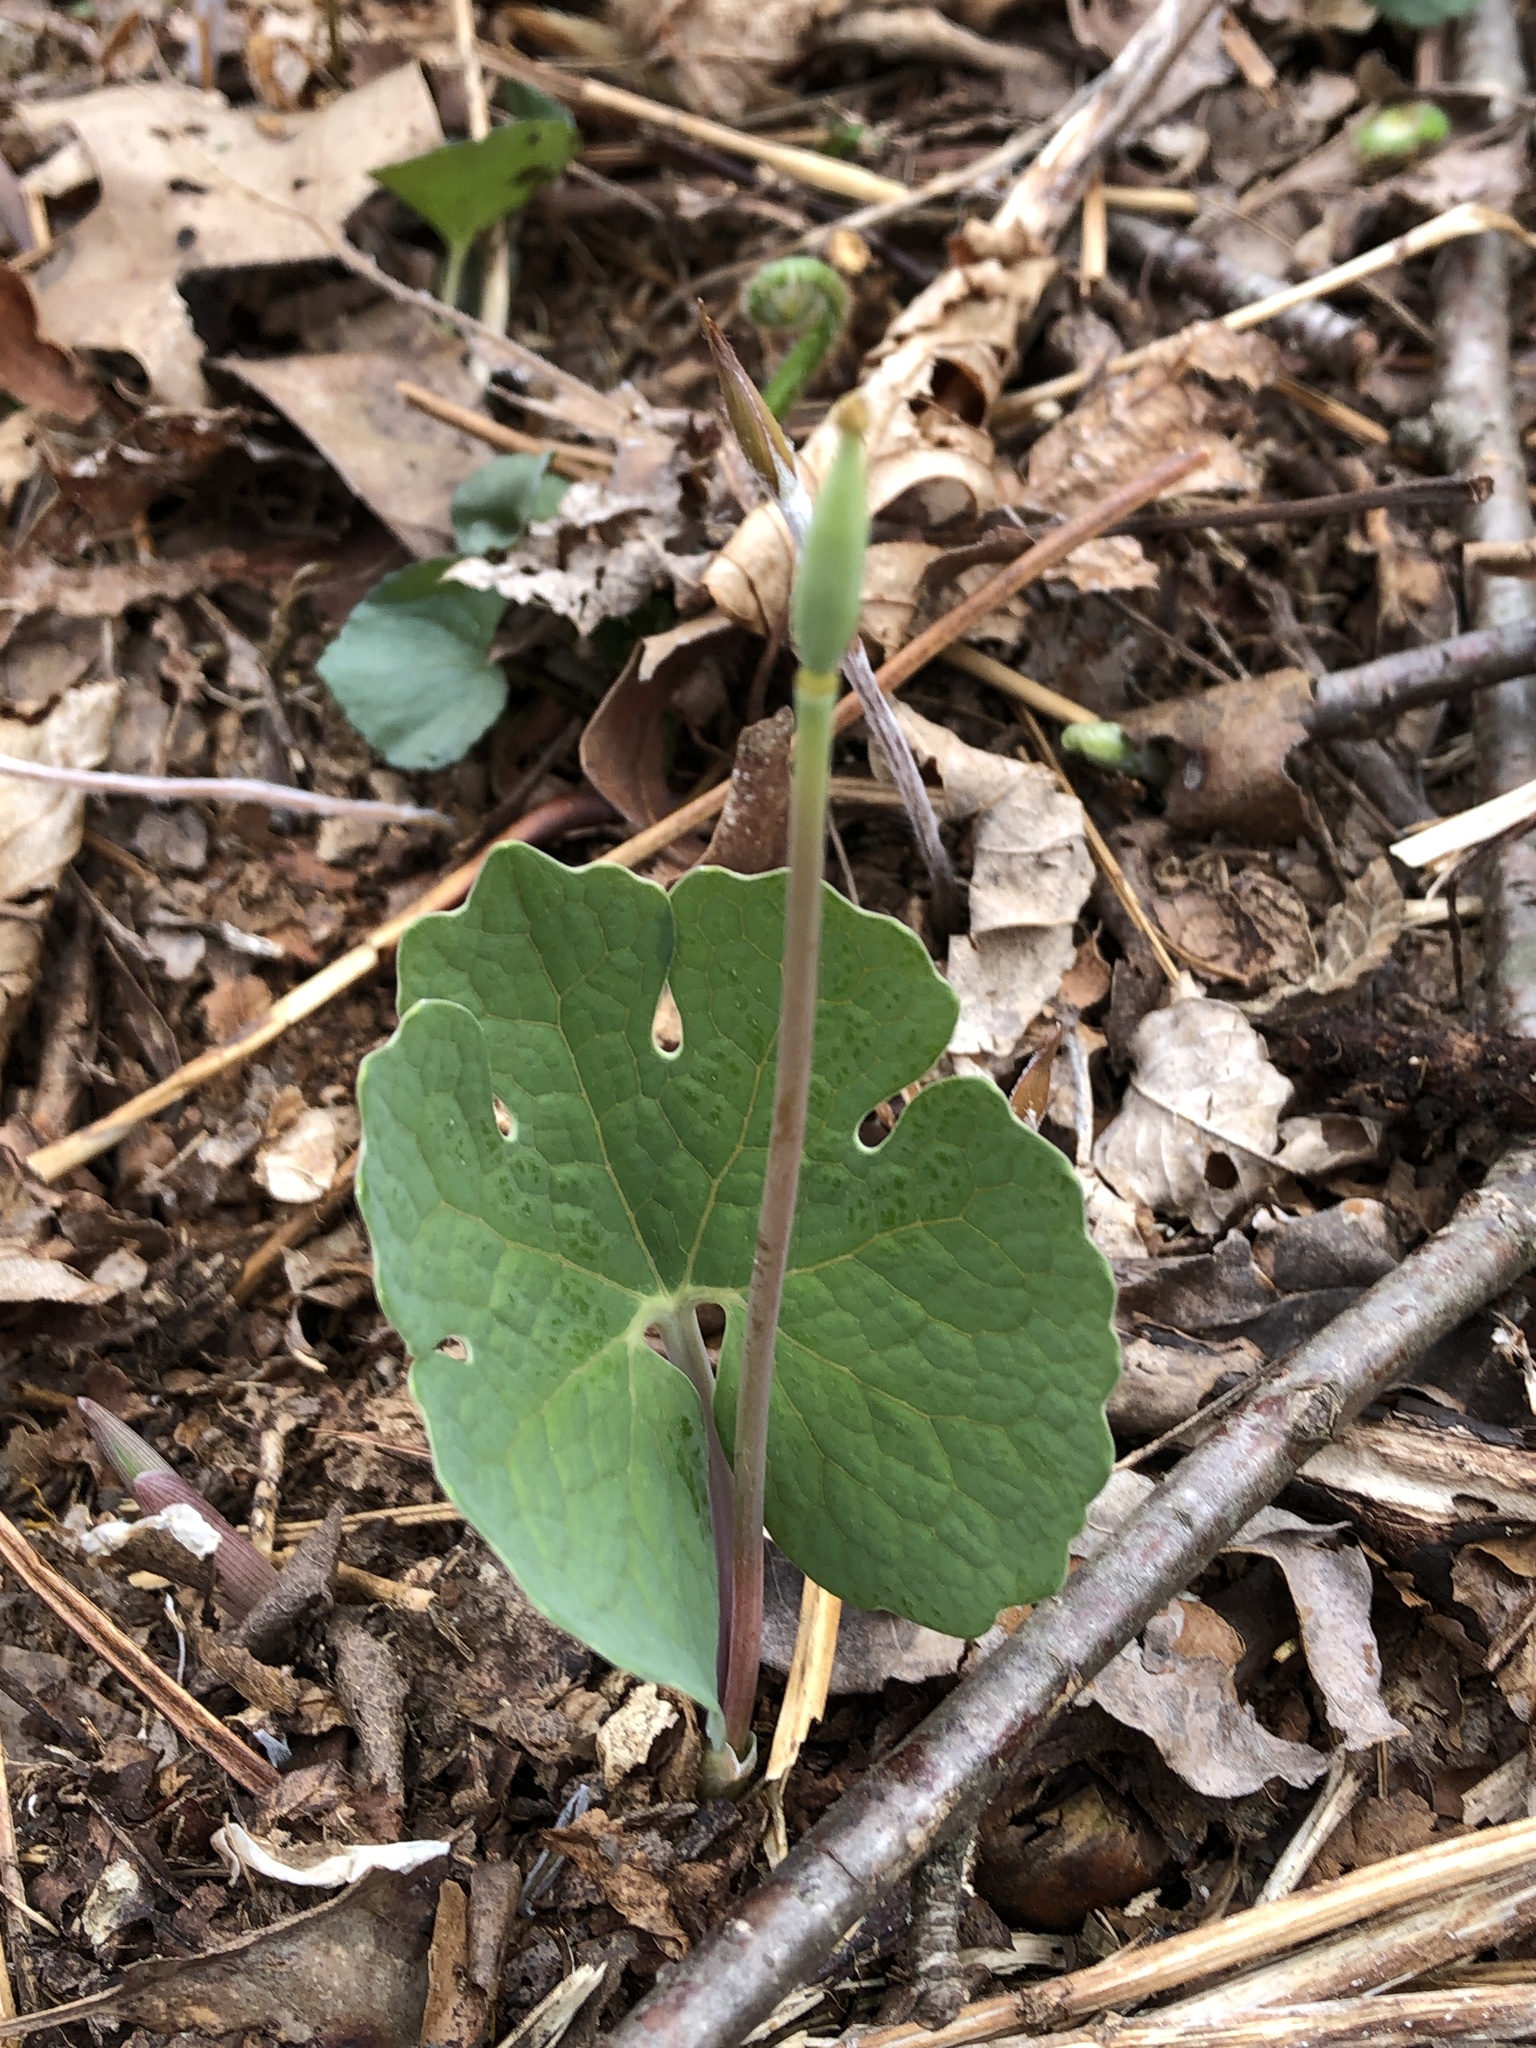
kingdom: Plantae
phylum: Tracheophyta
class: Magnoliopsida
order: Ranunculales
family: Papaveraceae
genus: Sanguinaria
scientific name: Sanguinaria canadensis
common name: Bloodroot
